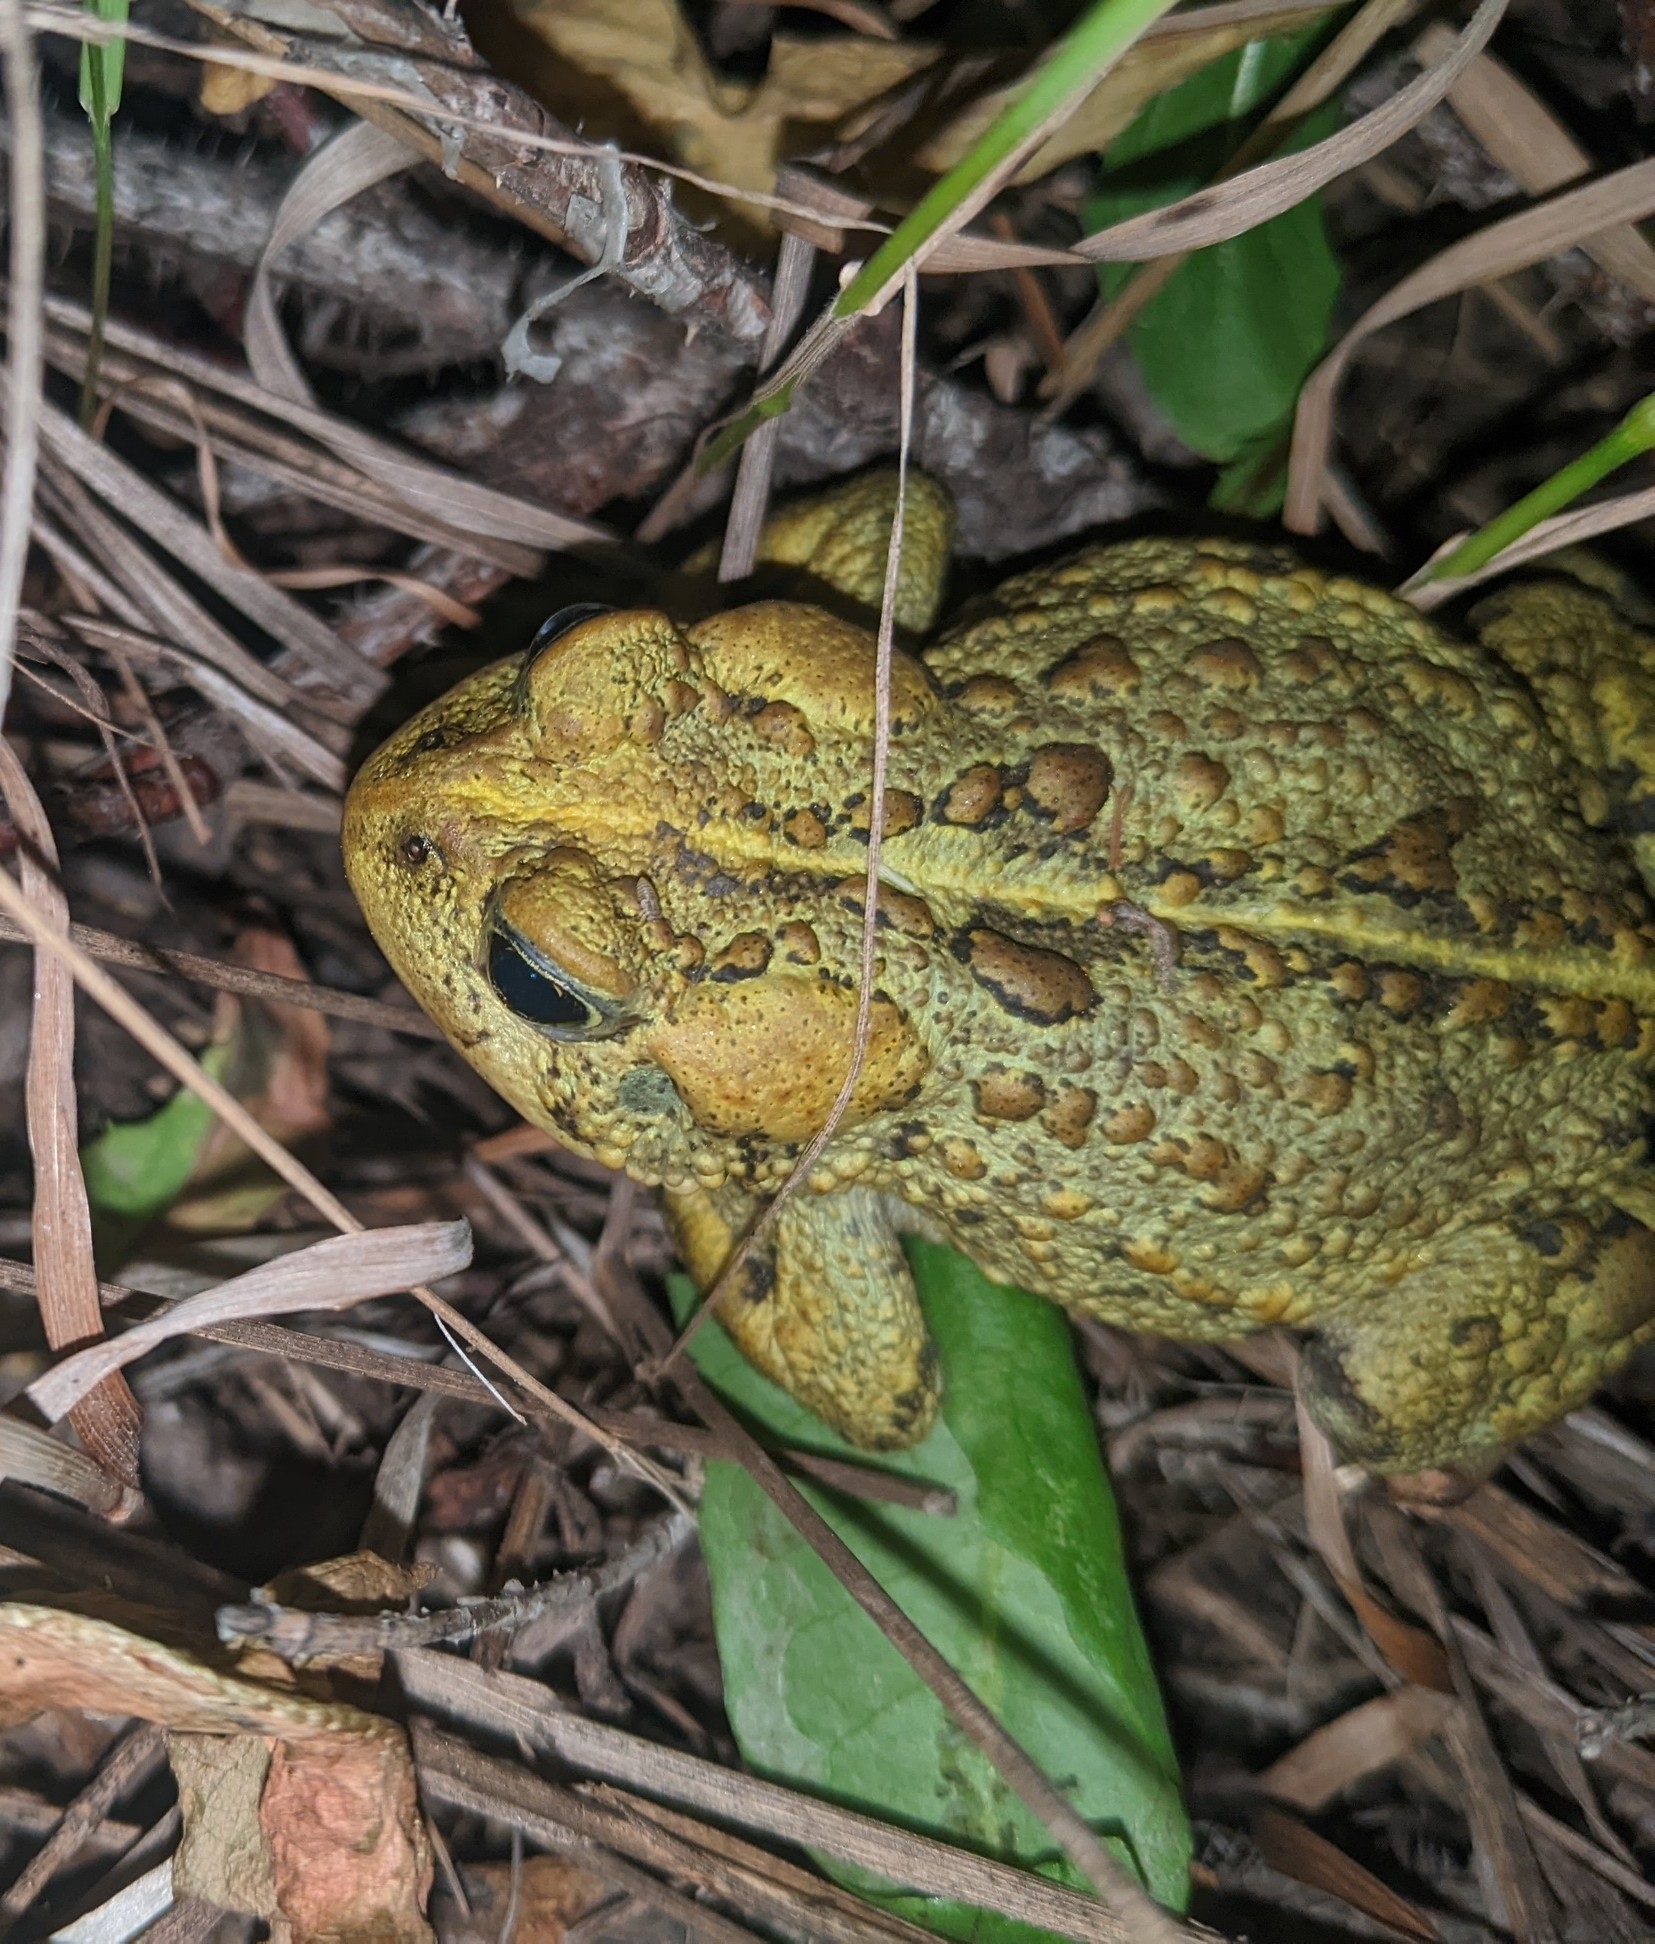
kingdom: Animalia
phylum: Chordata
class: Amphibia
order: Anura
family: Bufonidae
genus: Anaxyrus
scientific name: Anaxyrus boreas
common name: Western toad
